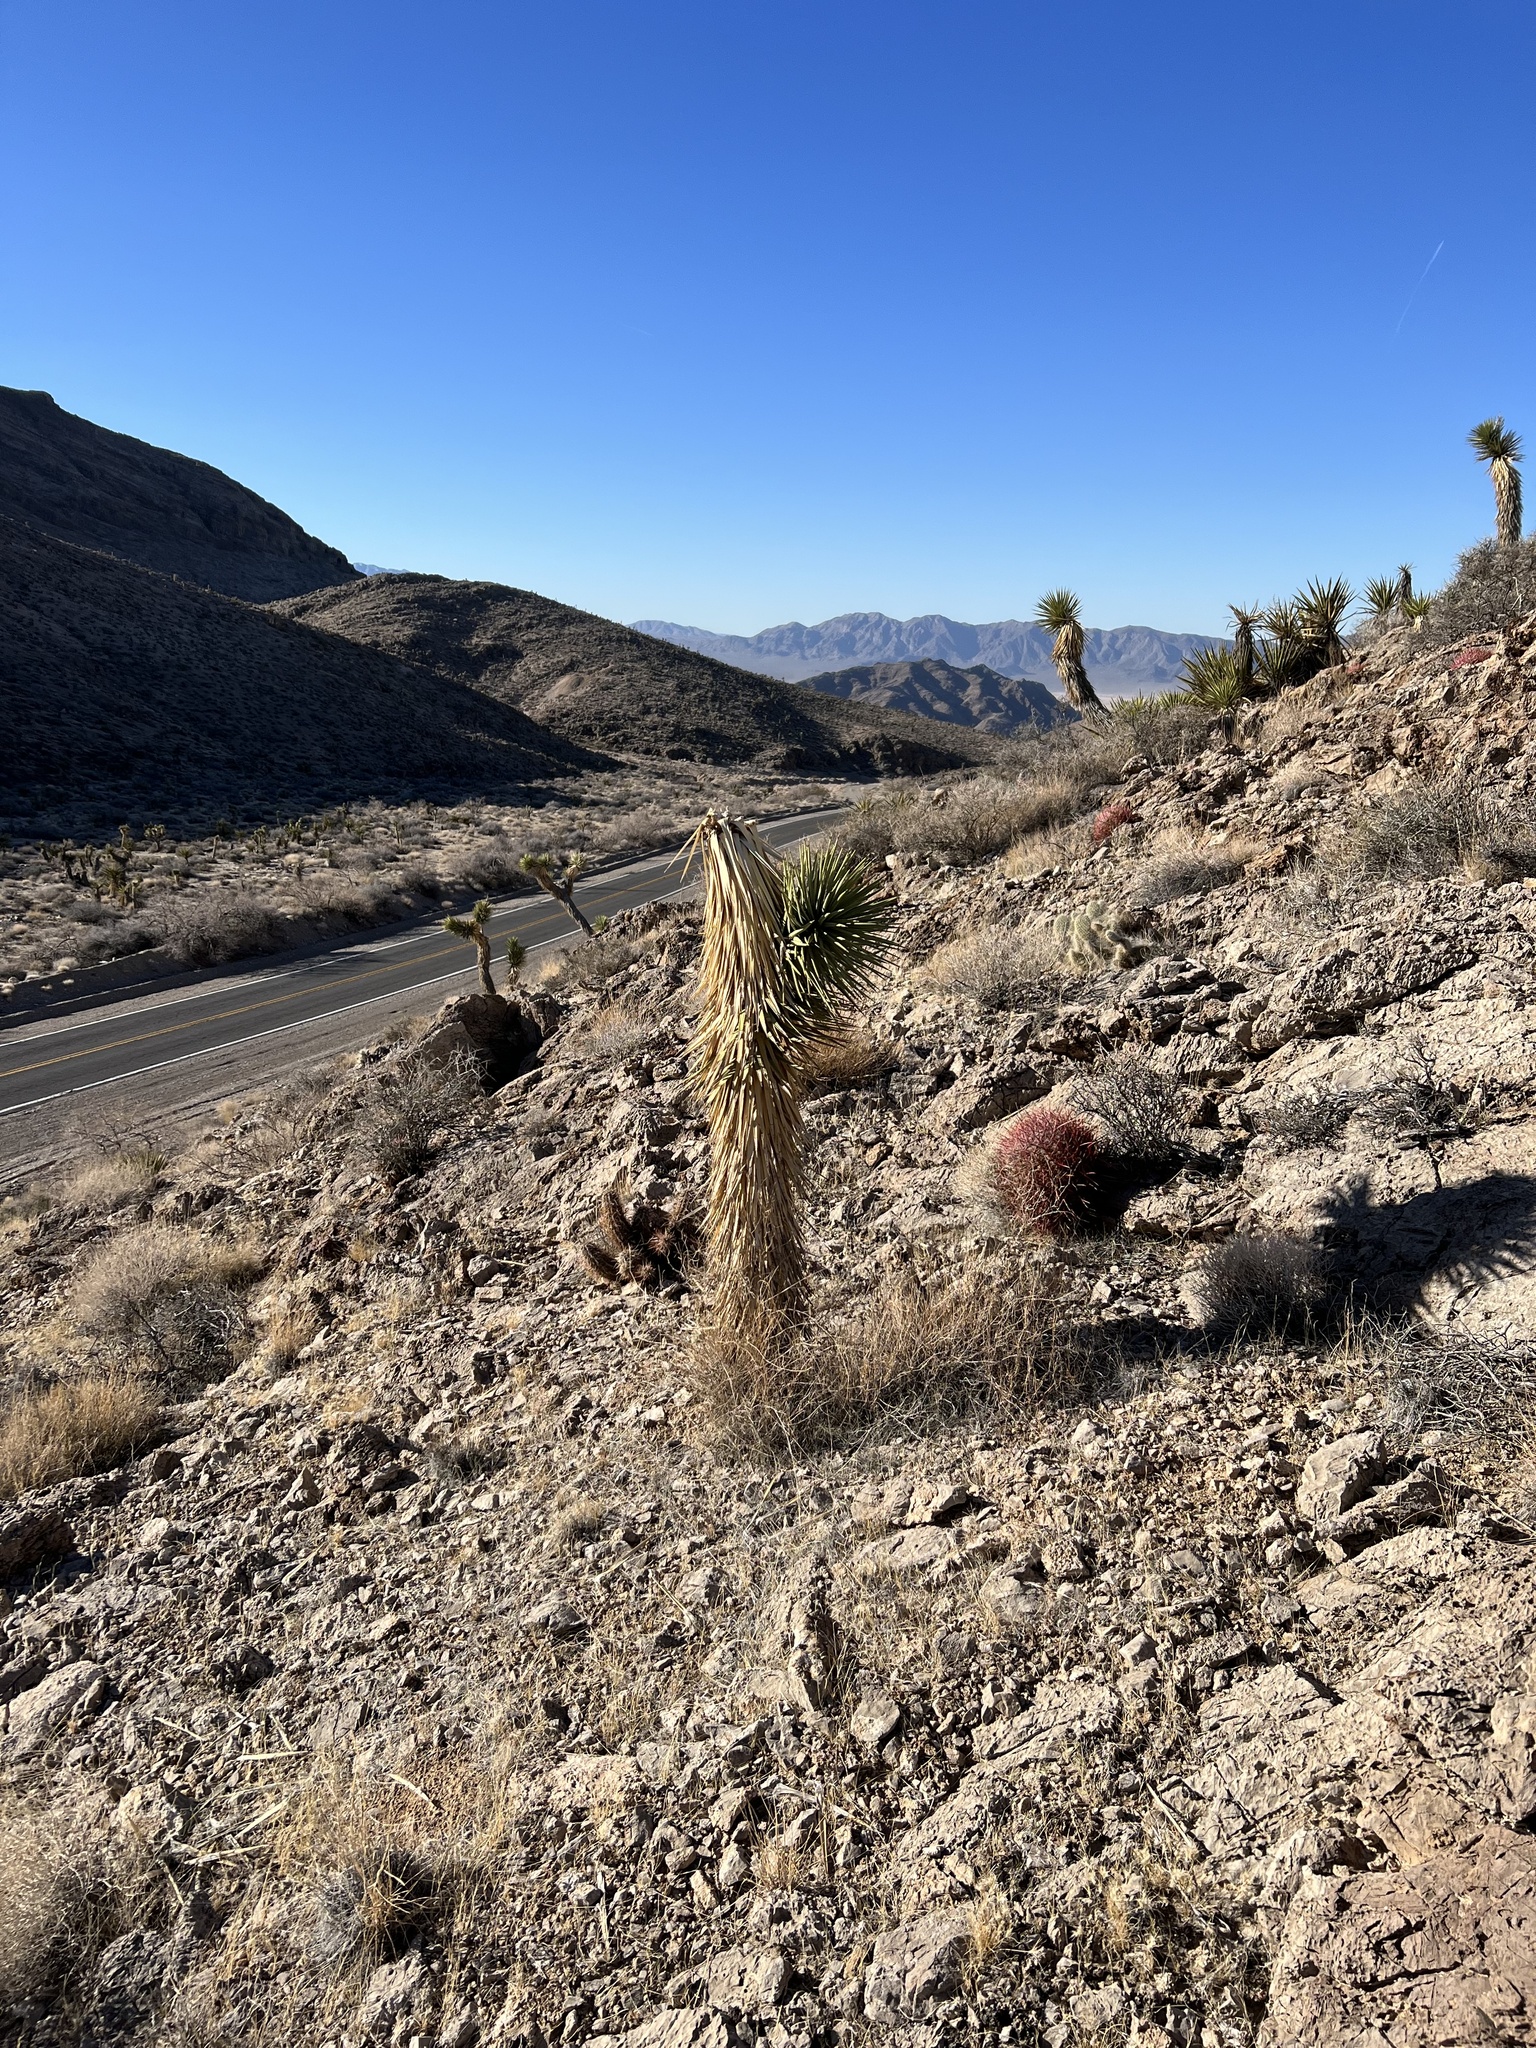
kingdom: Plantae
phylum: Tracheophyta
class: Liliopsida
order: Asparagales
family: Asparagaceae
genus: Yucca
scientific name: Yucca brevifolia
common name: Joshua tree
